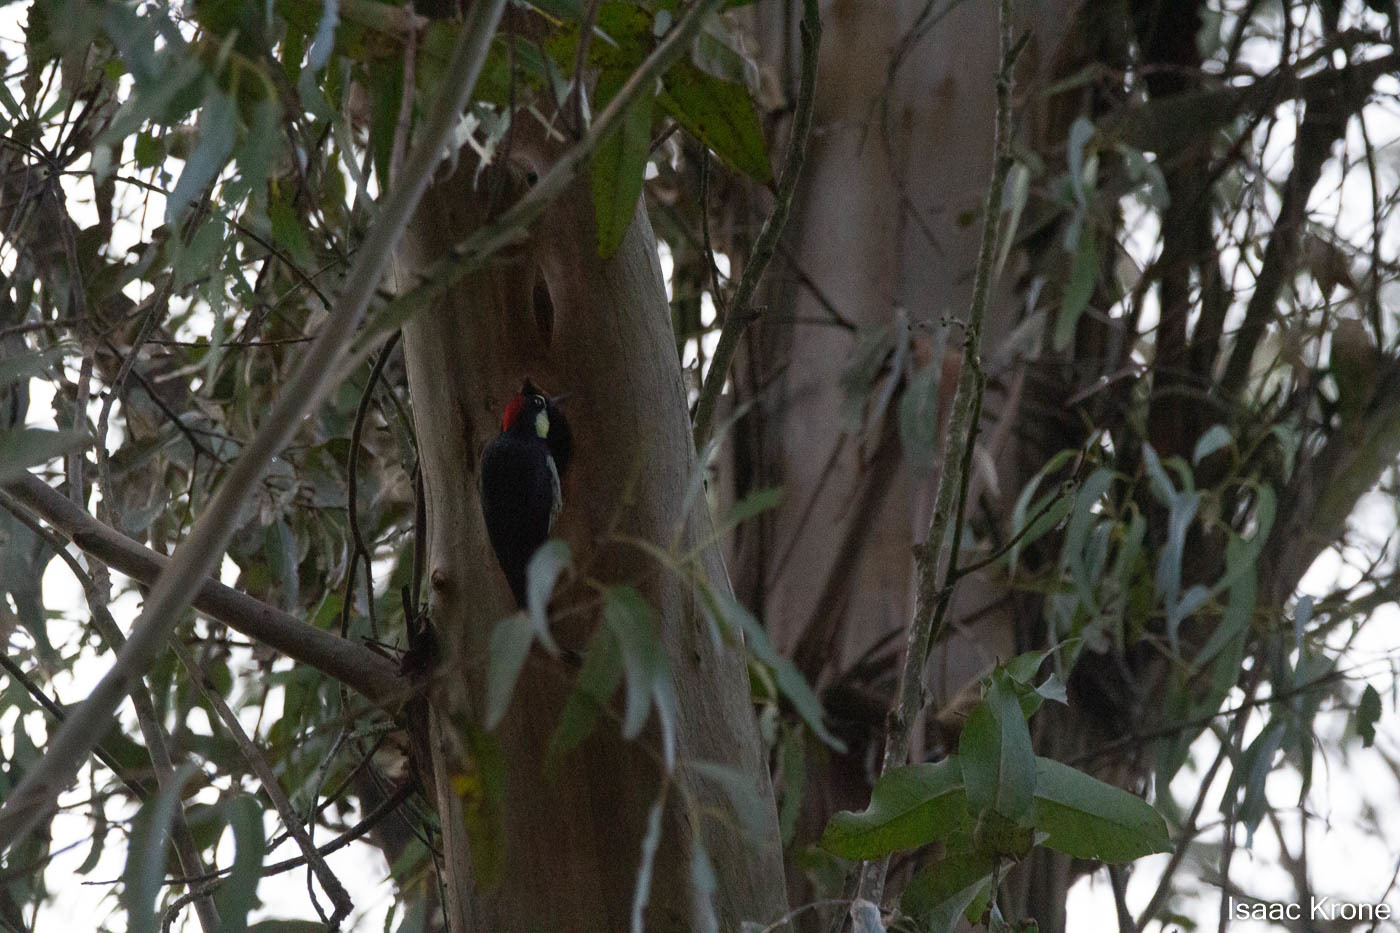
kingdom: Animalia
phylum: Chordata
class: Aves
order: Piciformes
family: Picidae
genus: Melanerpes
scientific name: Melanerpes formicivorus
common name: Acorn woodpecker
